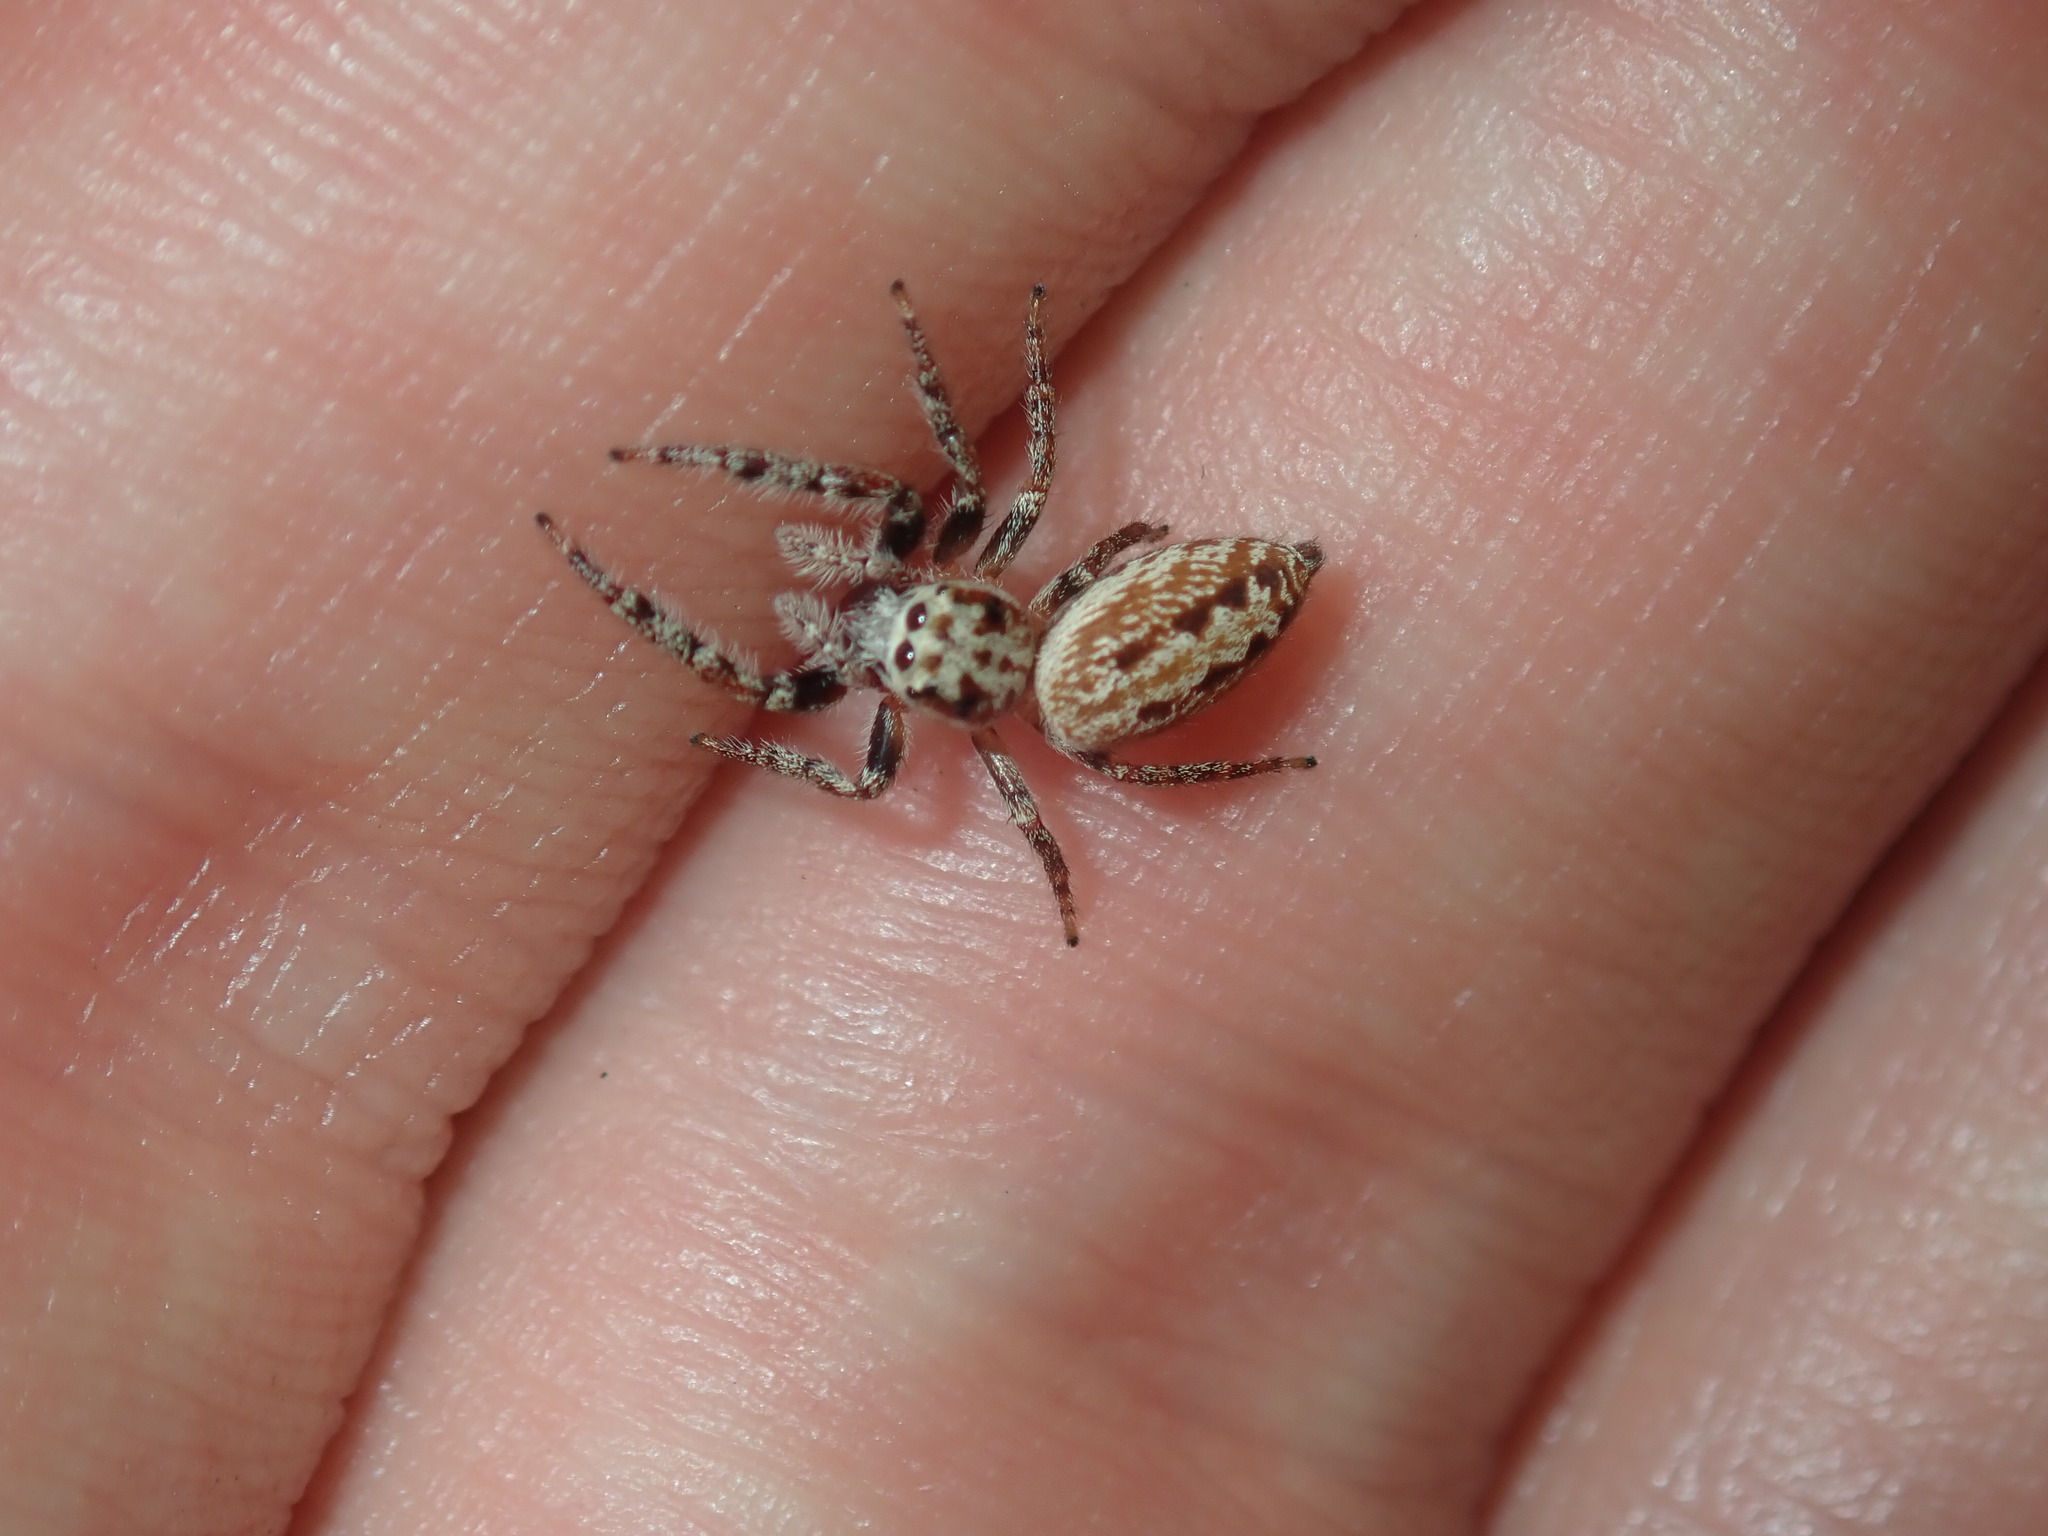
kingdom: Animalia
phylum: Arthropoda
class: Arachnida
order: Araneae
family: Salticidae
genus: Opisthoncus
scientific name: Opisthoncus serratofasciatus
